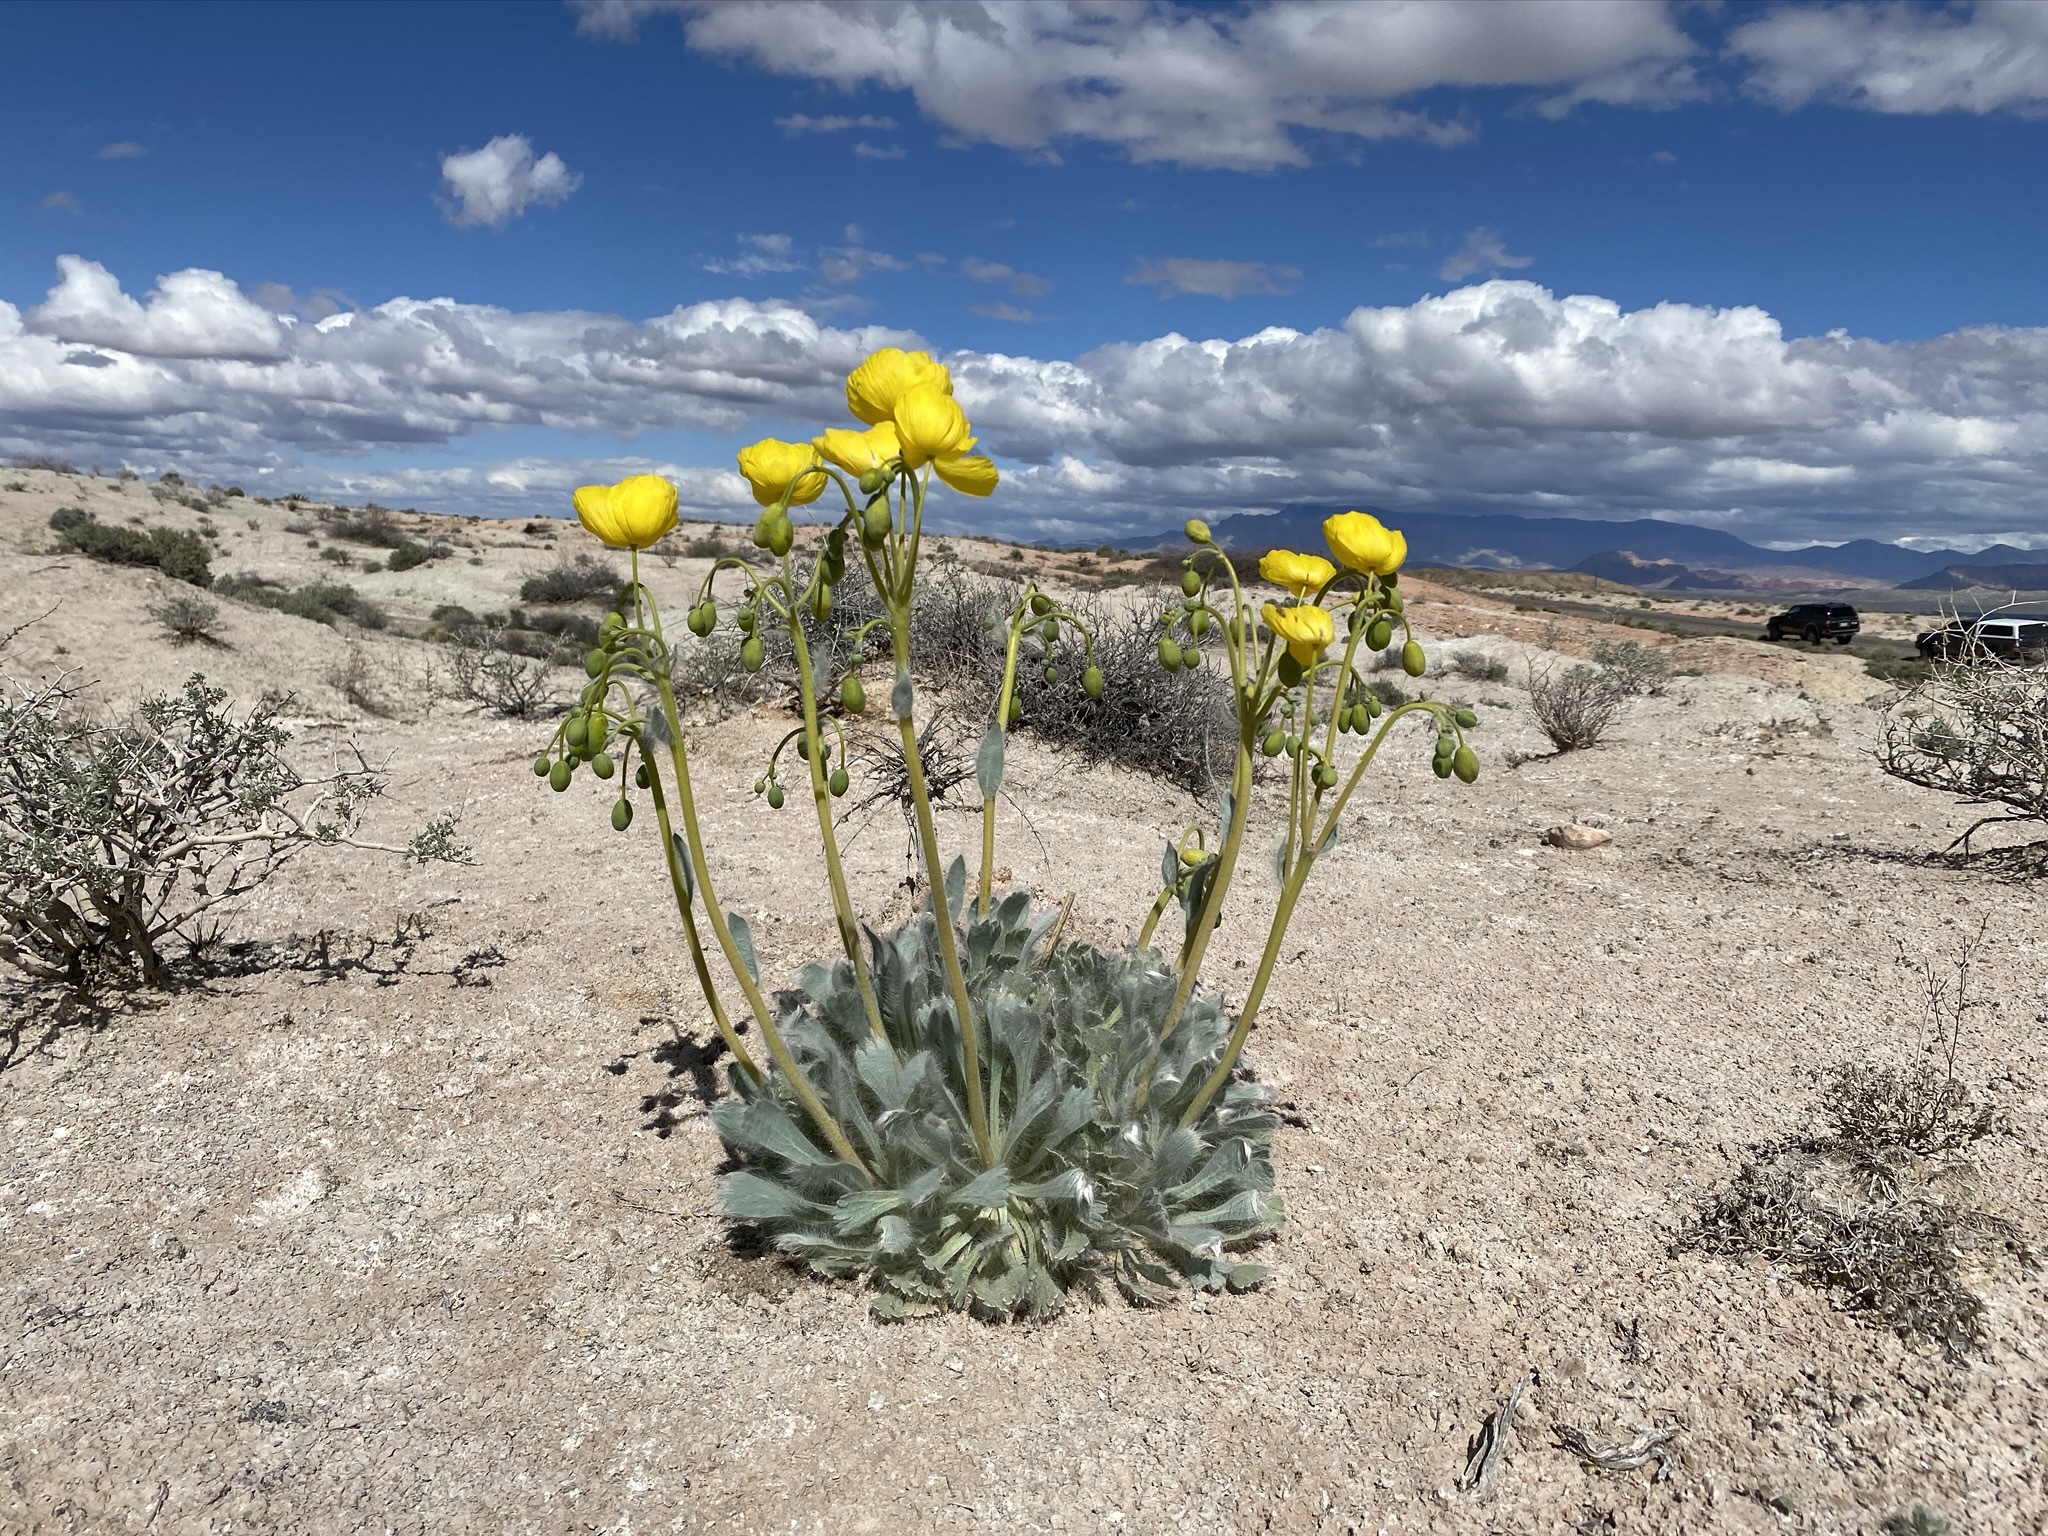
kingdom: Plantae
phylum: Tracheophyta
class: Magnoliopsida
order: Ranunculales
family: Papaveraceae
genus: Arctomecon
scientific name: Arctomecon californicum
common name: Golden bearclaw-poppy
